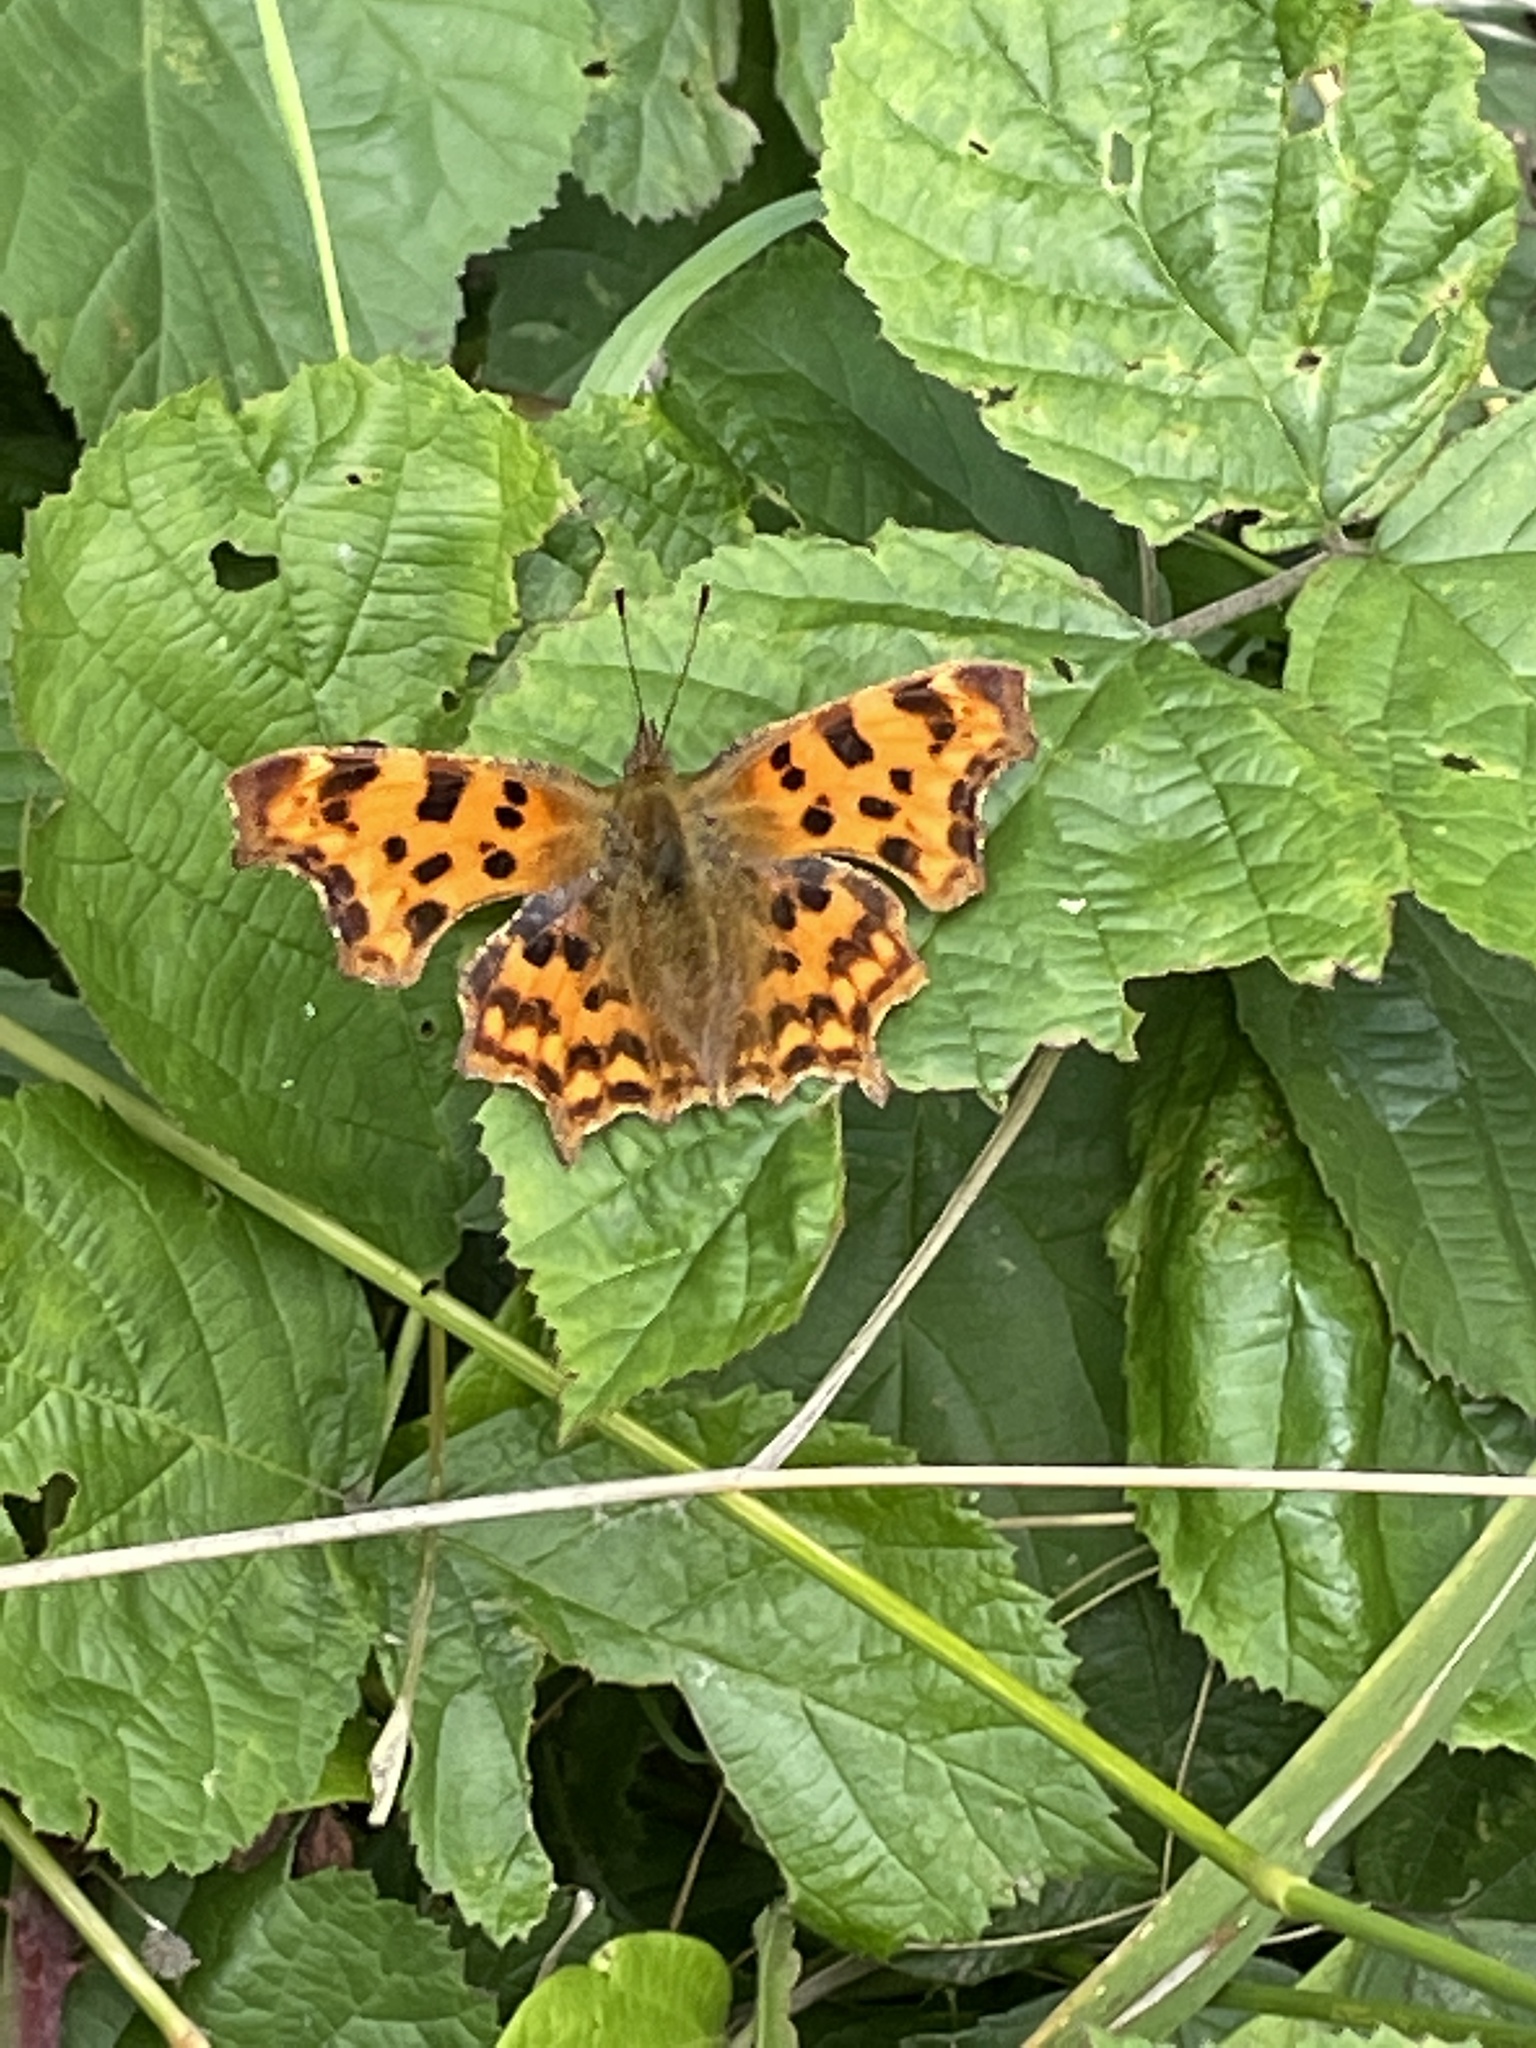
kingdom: Animalia
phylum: Arthropoda
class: Insecta
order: Lepidoptera
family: Nymphalidae
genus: Polygonia
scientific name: Polygonia c-album
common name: Comma
